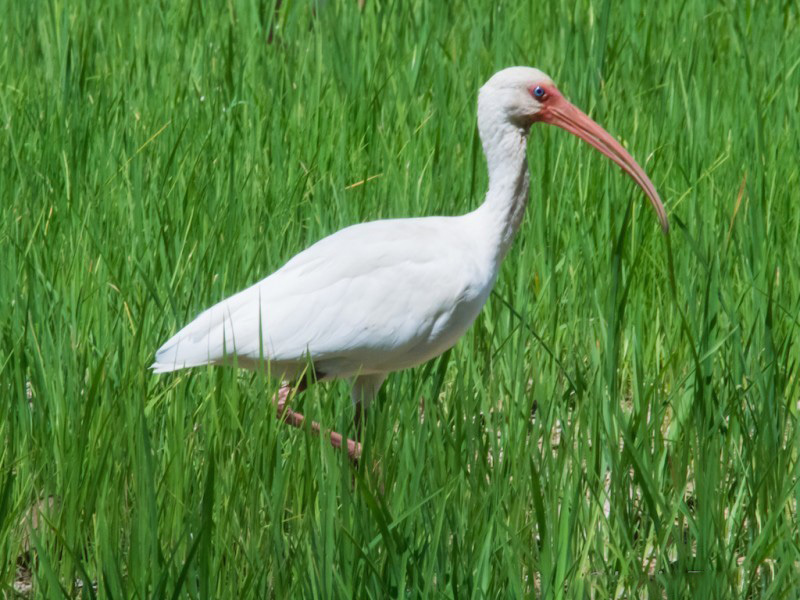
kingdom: Animalia
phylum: Chordata
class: Aves
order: Pelecaniformes
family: Threskiornithidae
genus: Eudocimus
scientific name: Eudocimus albus
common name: White ibis
